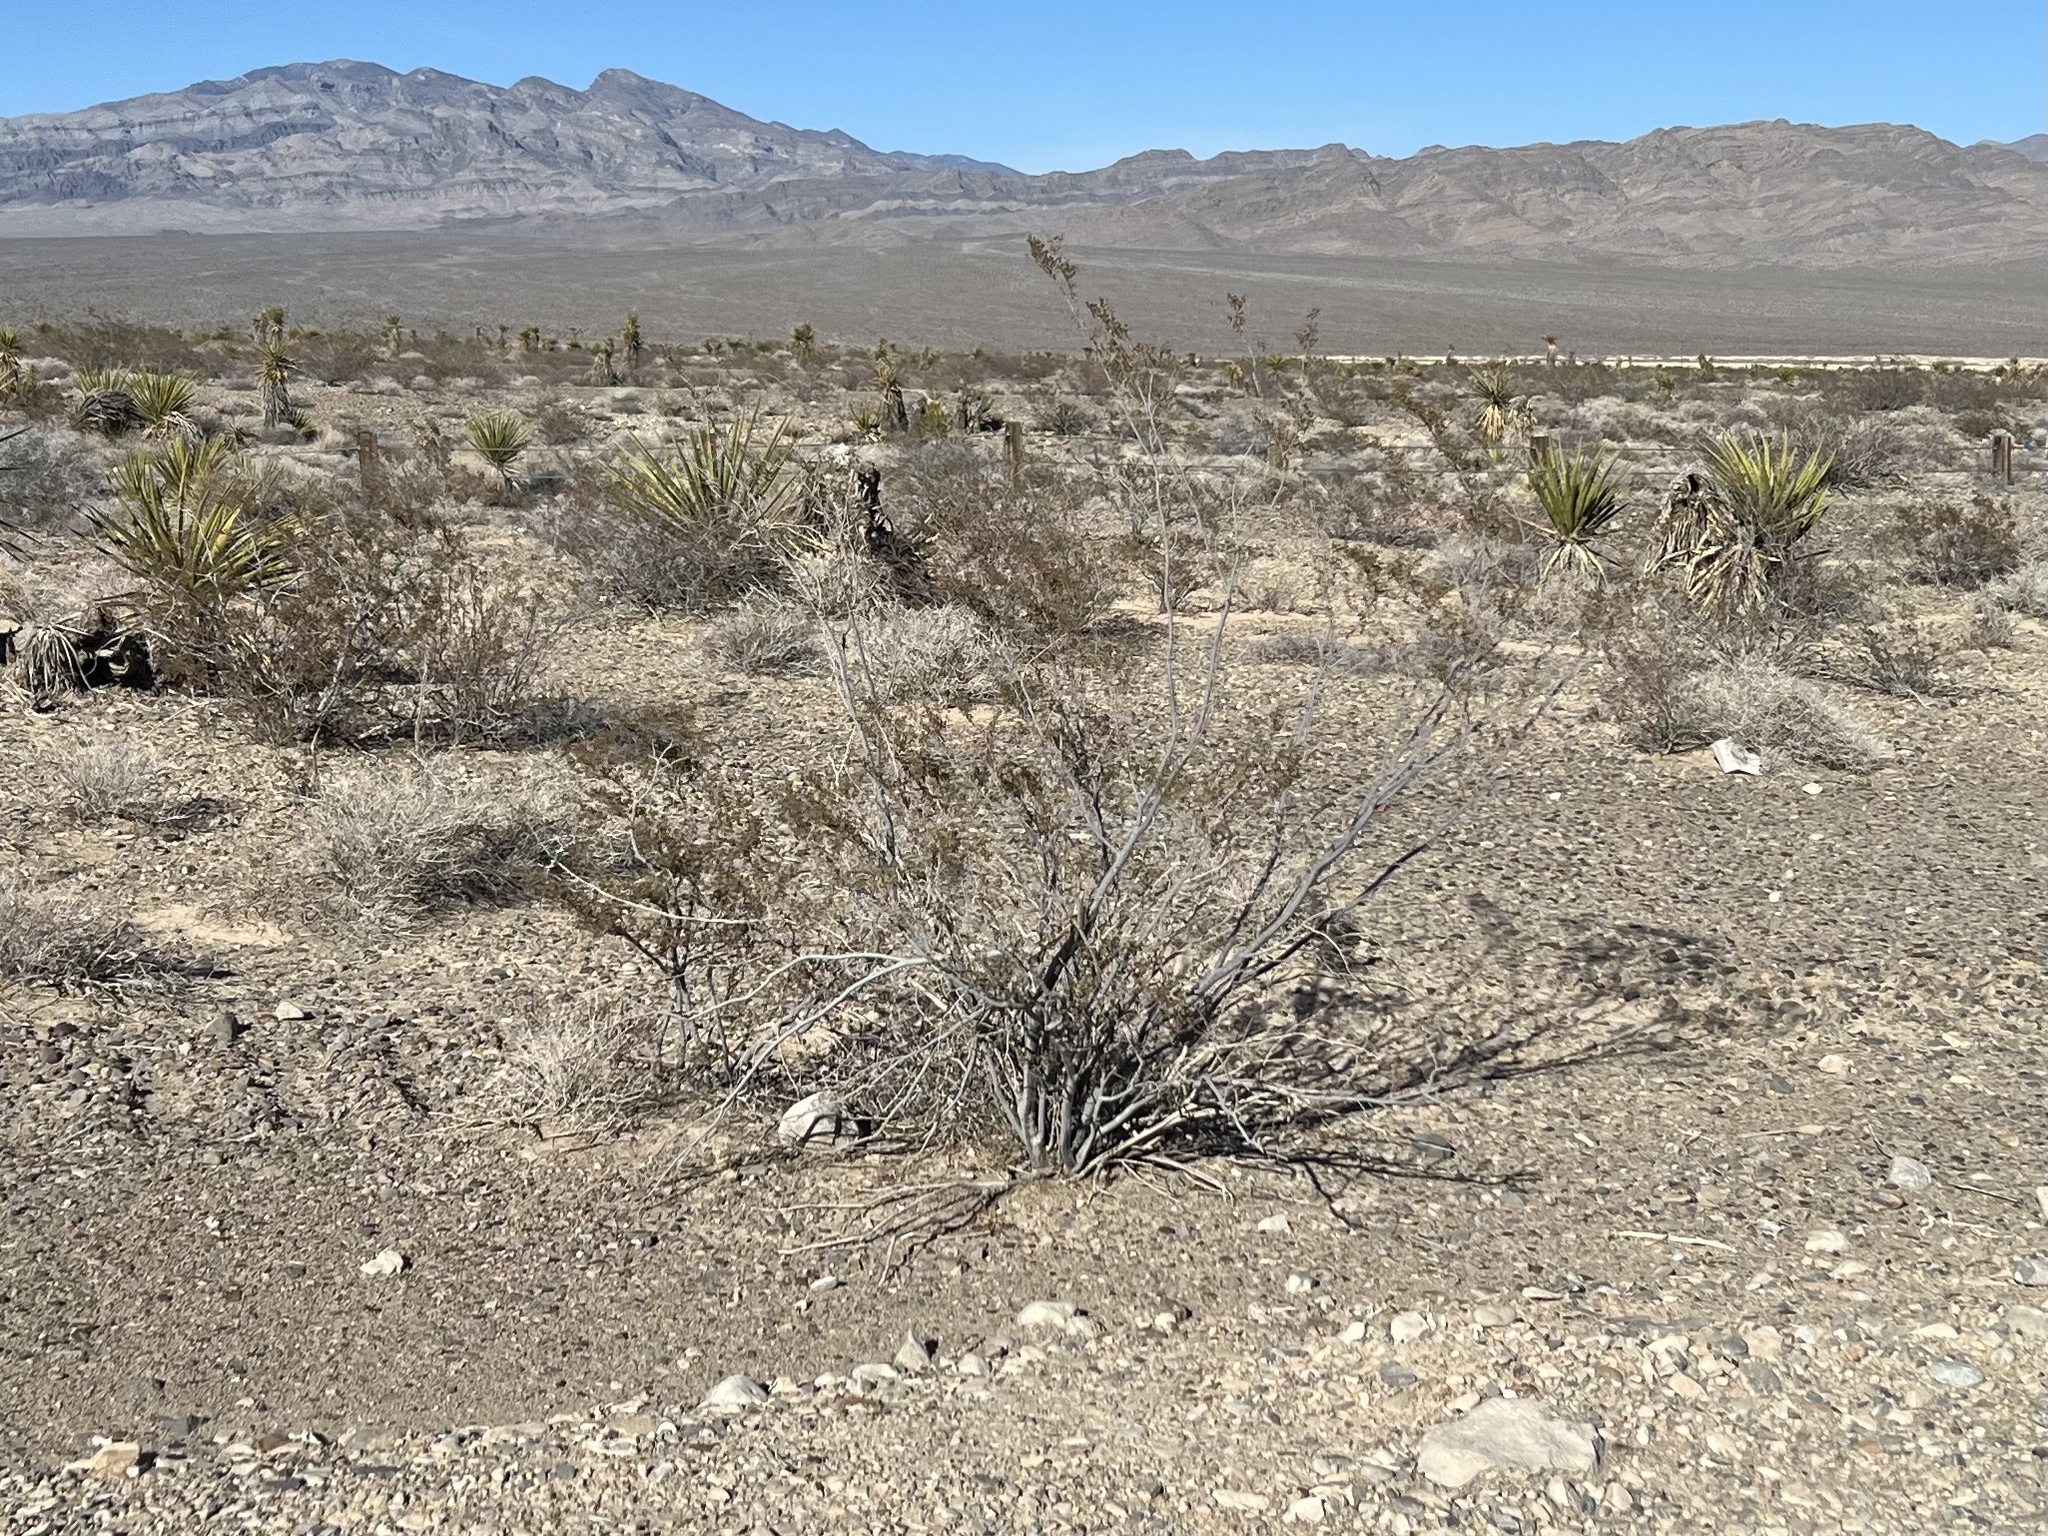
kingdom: Plantae
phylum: Tracheophyta
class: Magnoliopsida
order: Zygophyllales
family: Zygophyllaceae
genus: Larrea
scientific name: Larrea tridentata
